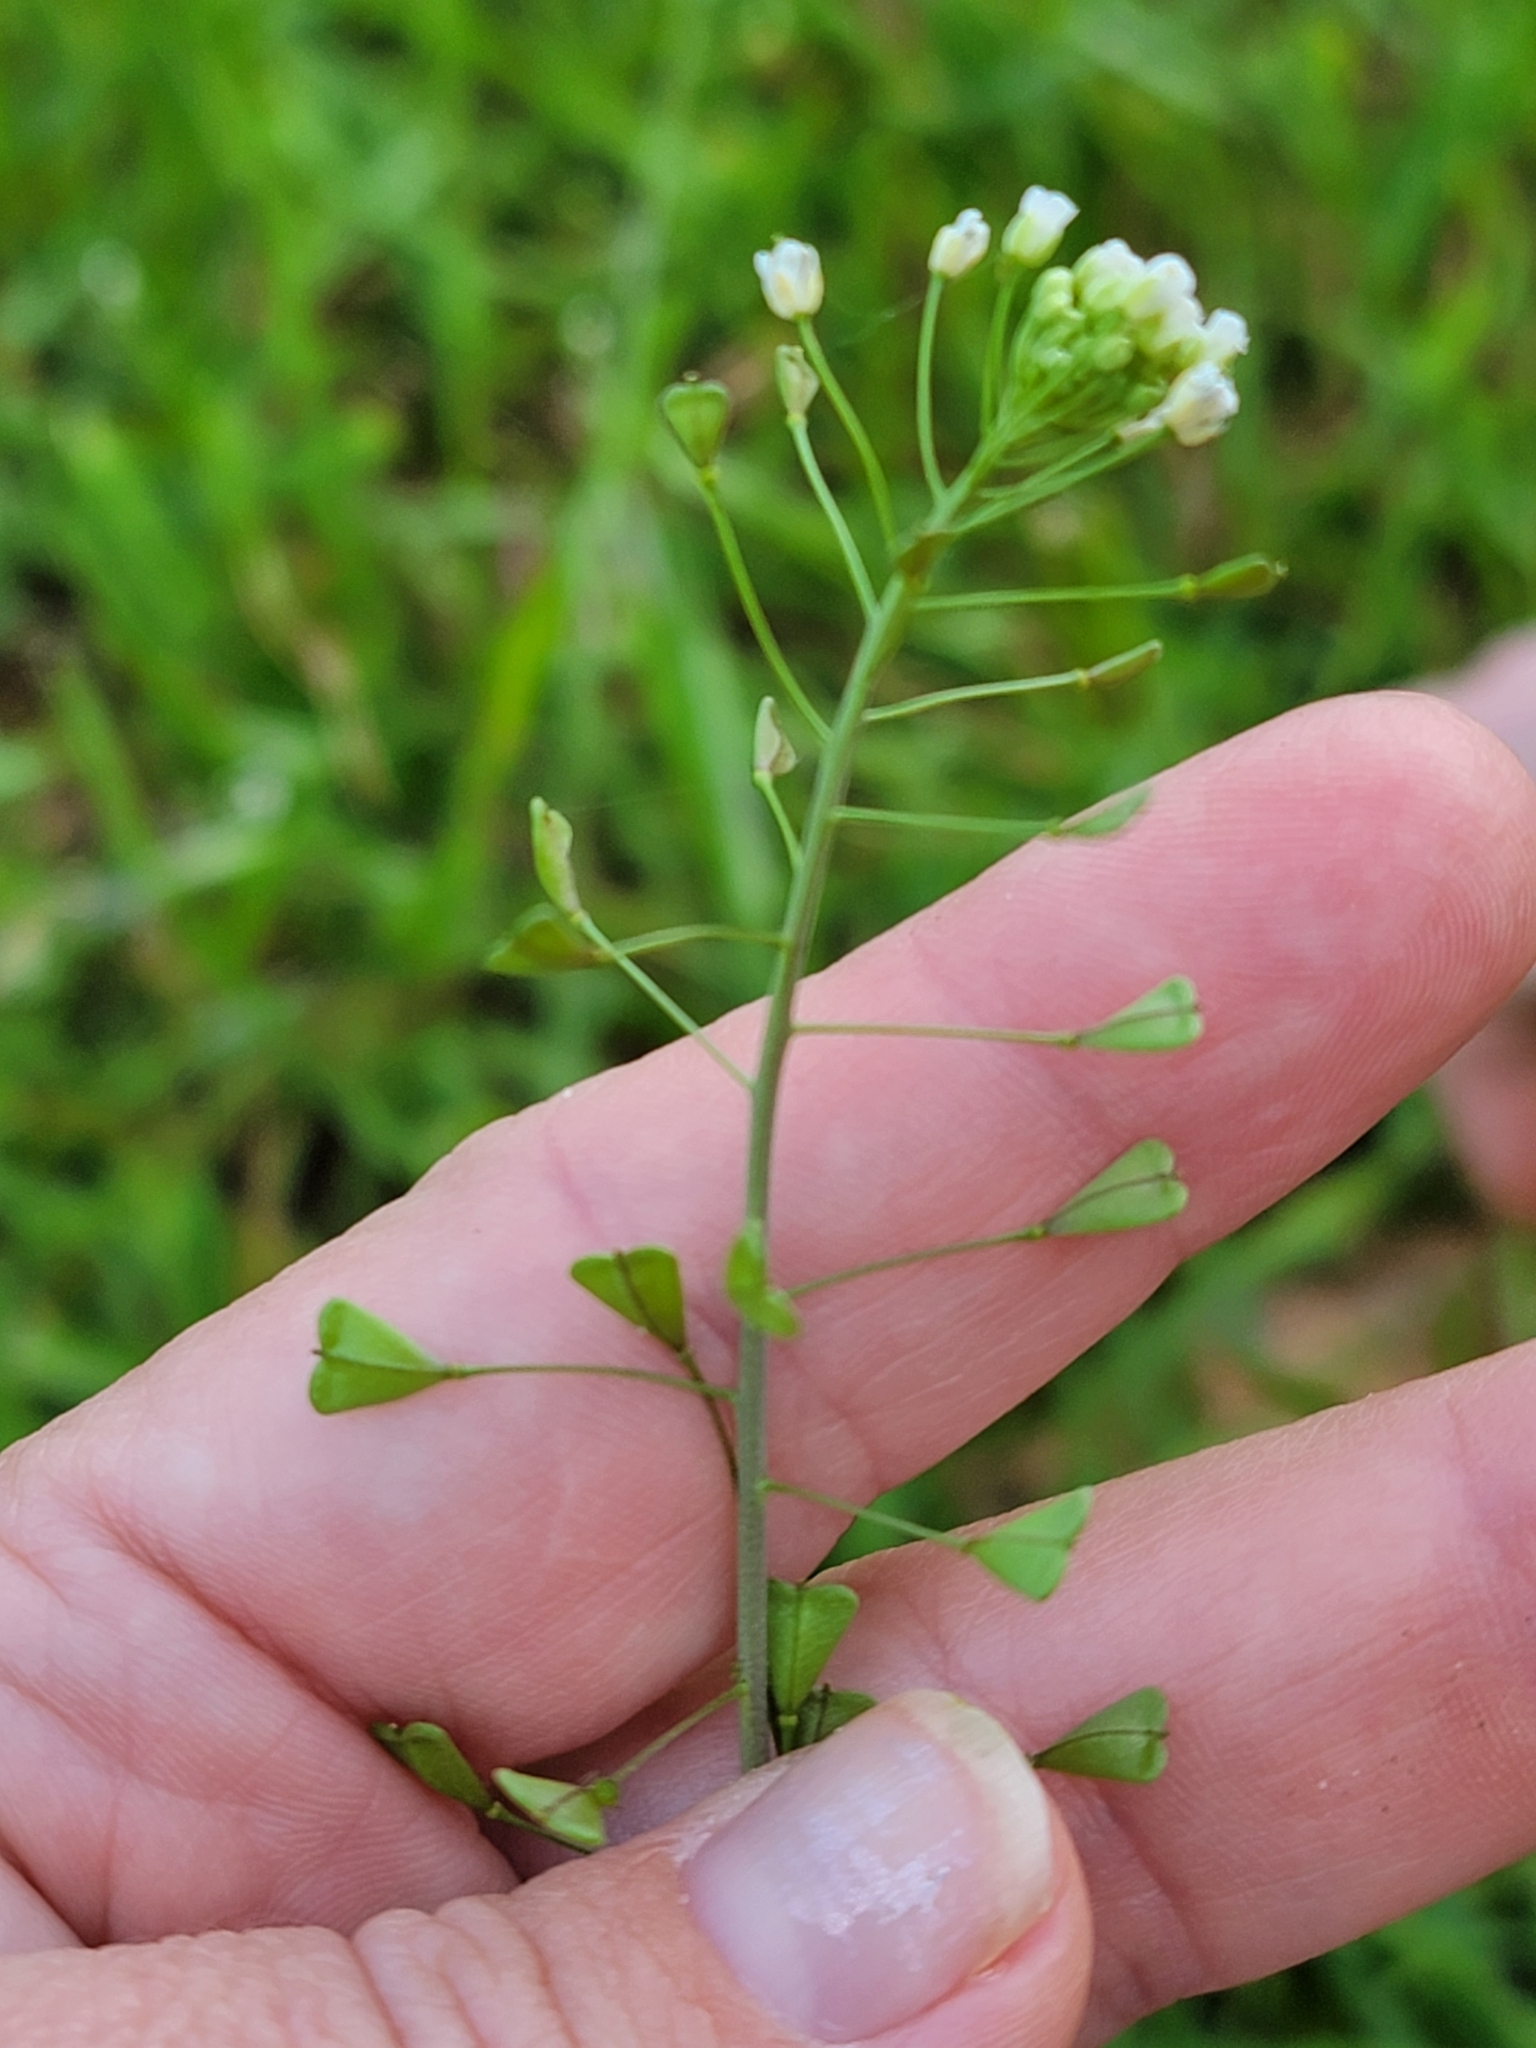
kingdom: Plantae
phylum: Tracheophyta
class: Magnoliopsida
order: Brassicales
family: Brassicaceae
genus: Capsella
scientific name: Capsella bursa-pastoris
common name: Shepherd's purse
